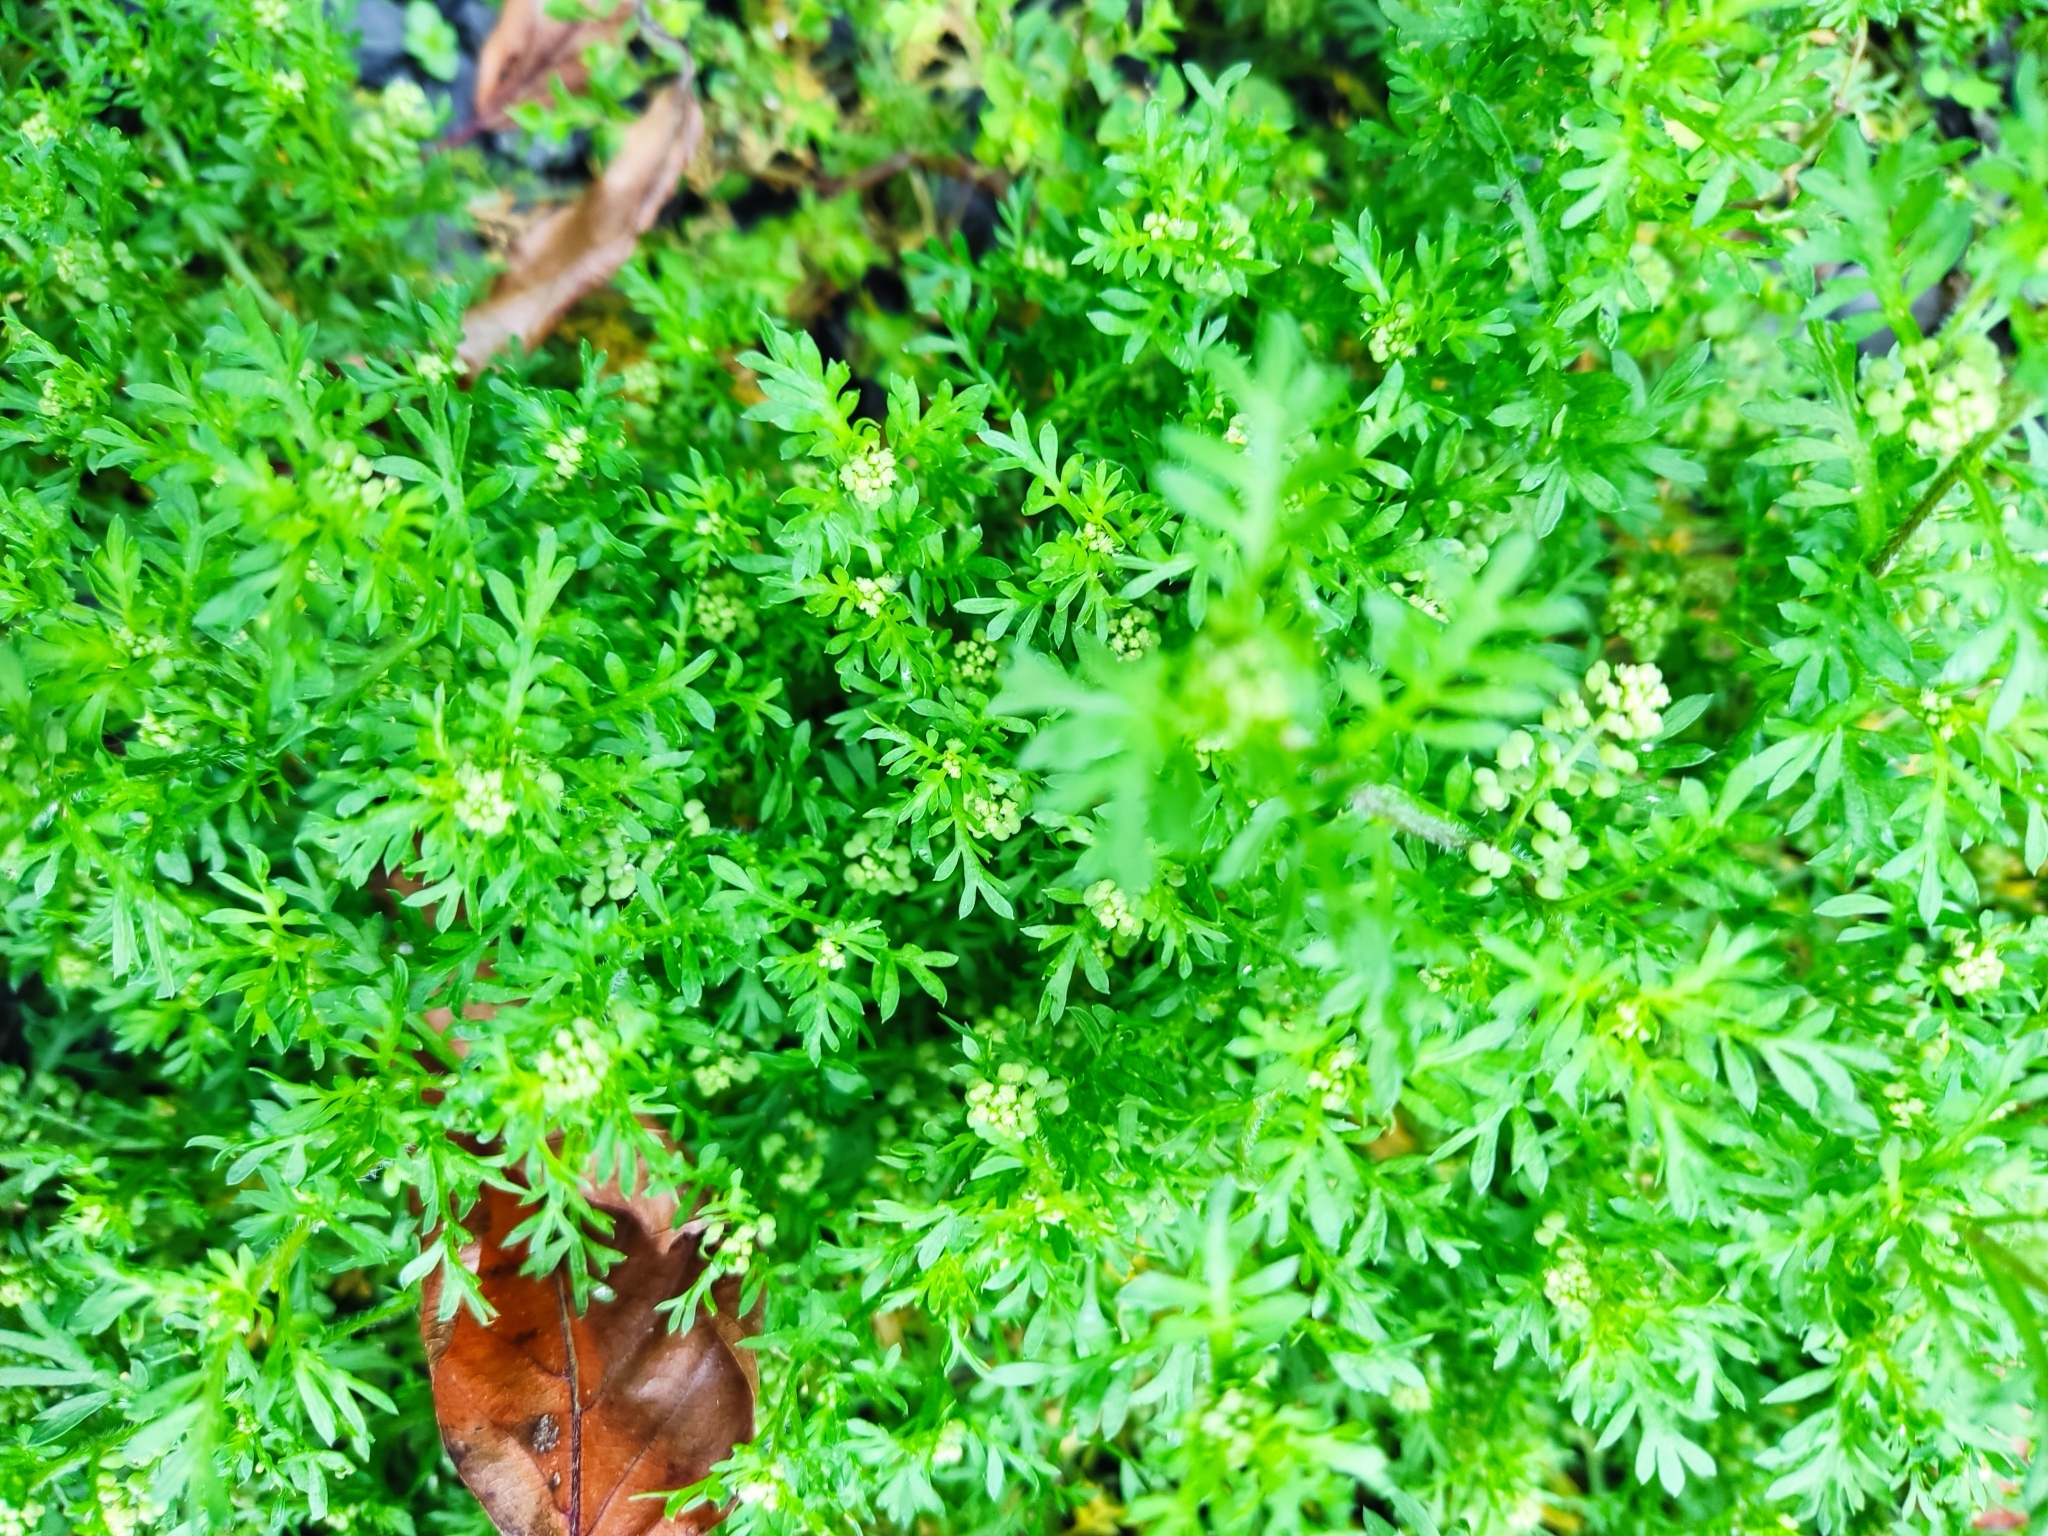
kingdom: Plantae
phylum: Tracheophyta
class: Magnoliopsida
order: Brassicales
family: Brassicaceae
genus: Lepidium
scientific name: Lepidium didymum
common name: Lesser swinecress
